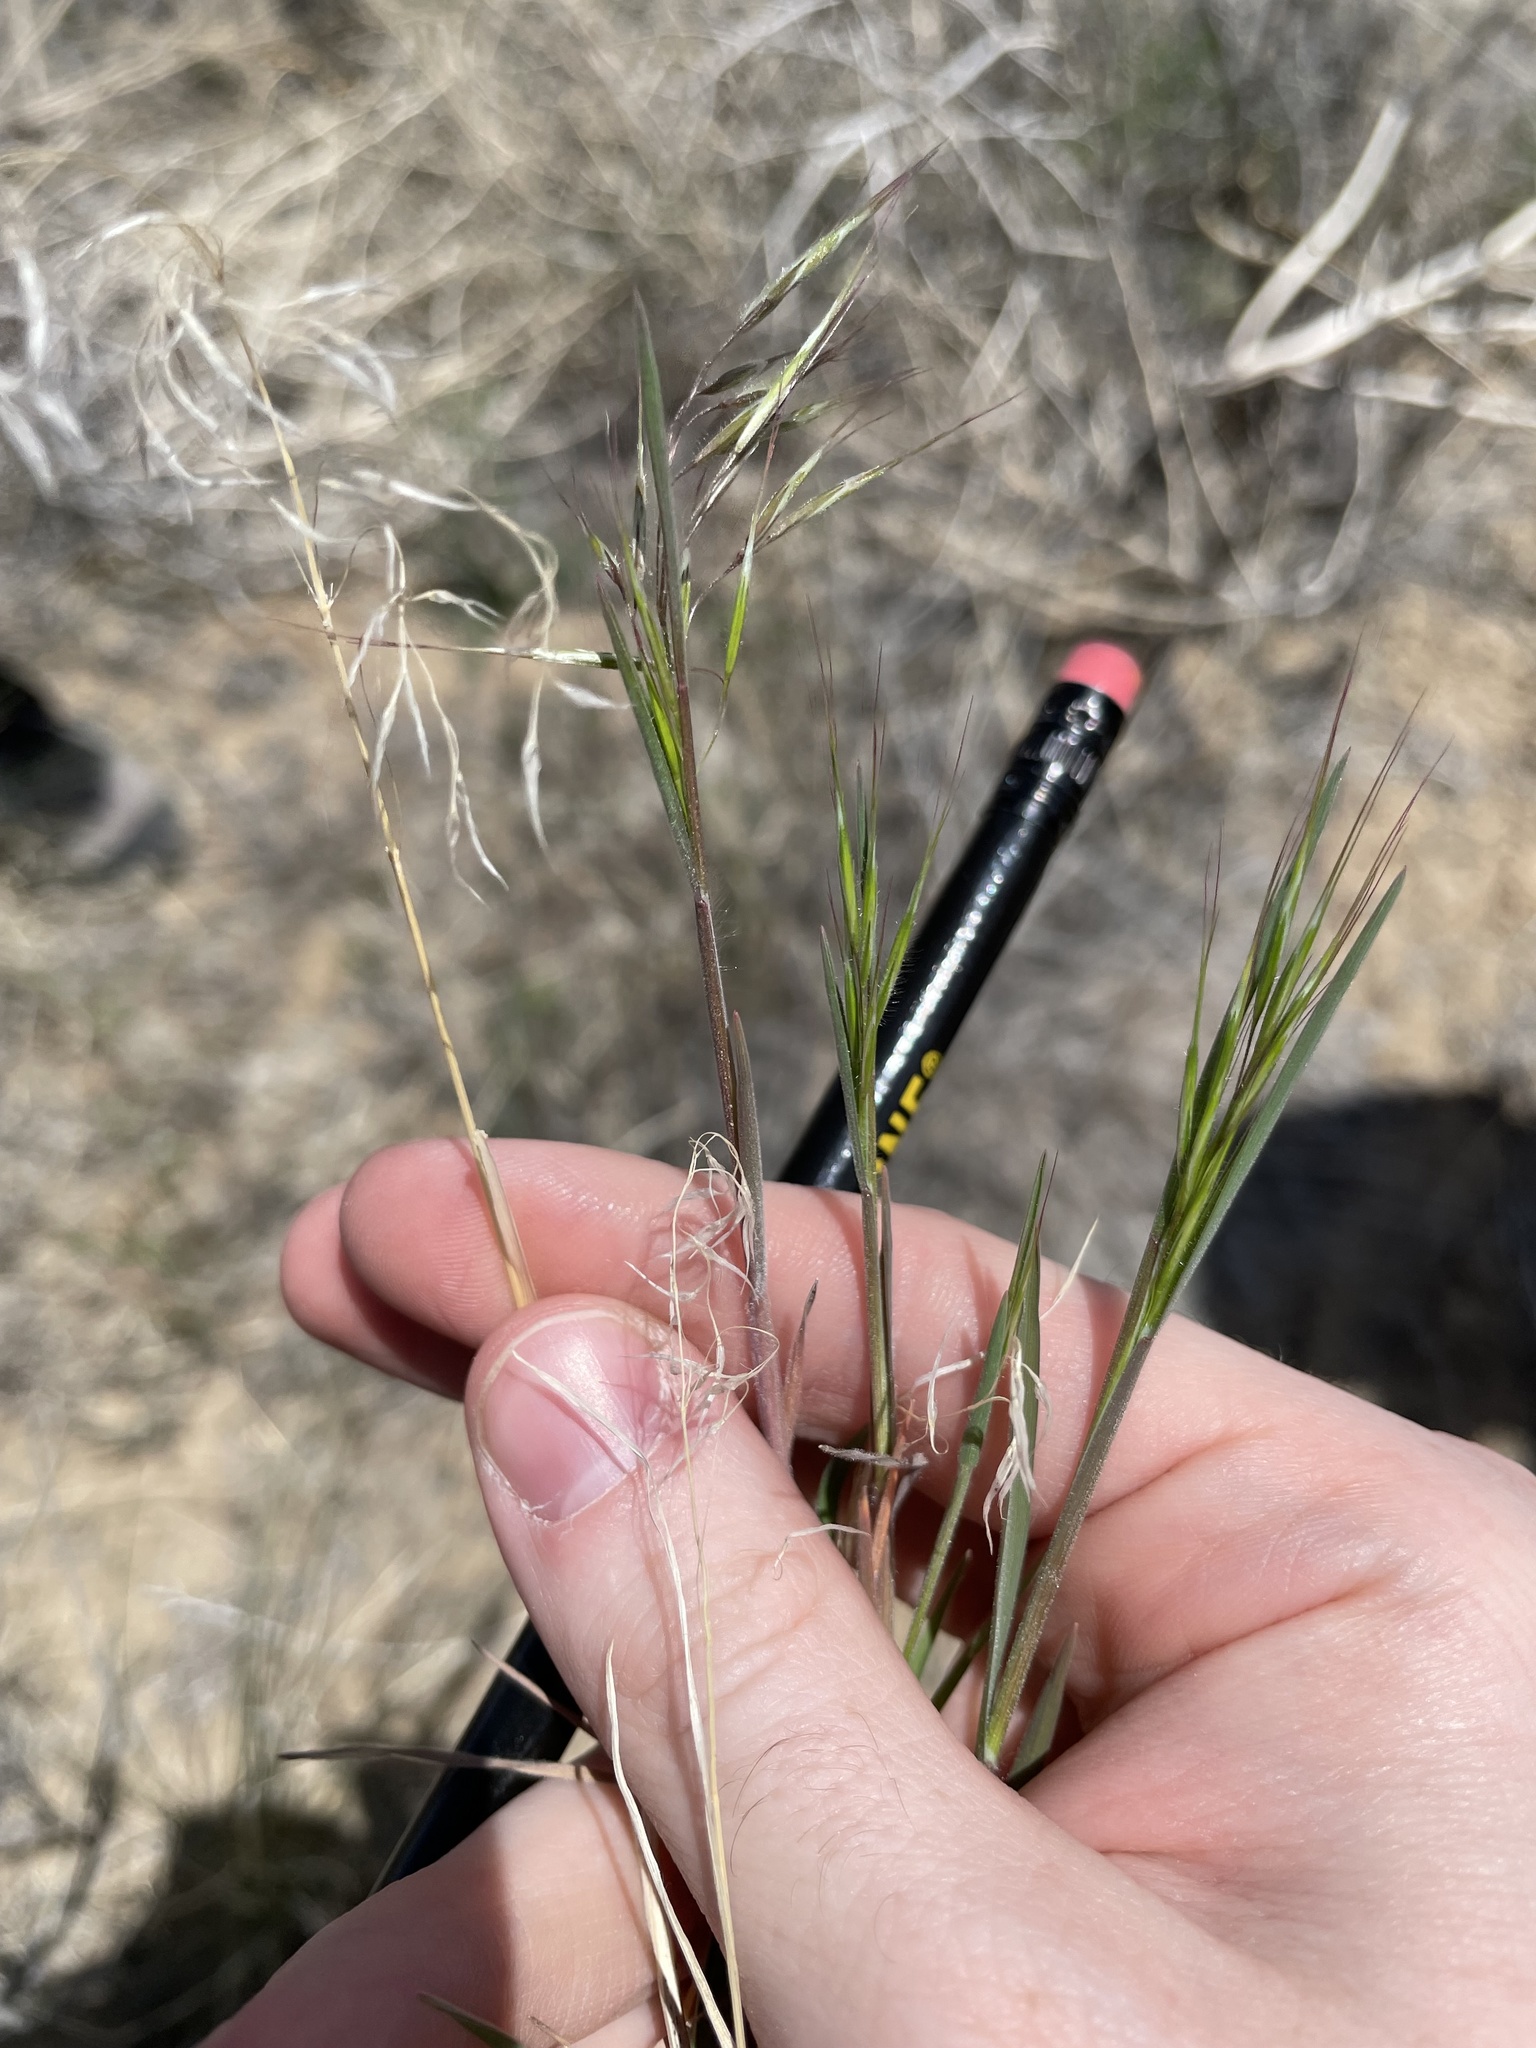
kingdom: Plantae
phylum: Tracheophyta
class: Liliopsida
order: Poales
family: Poaceae
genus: Bromus
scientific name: Bromus tectorum
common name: Cheatgrass
